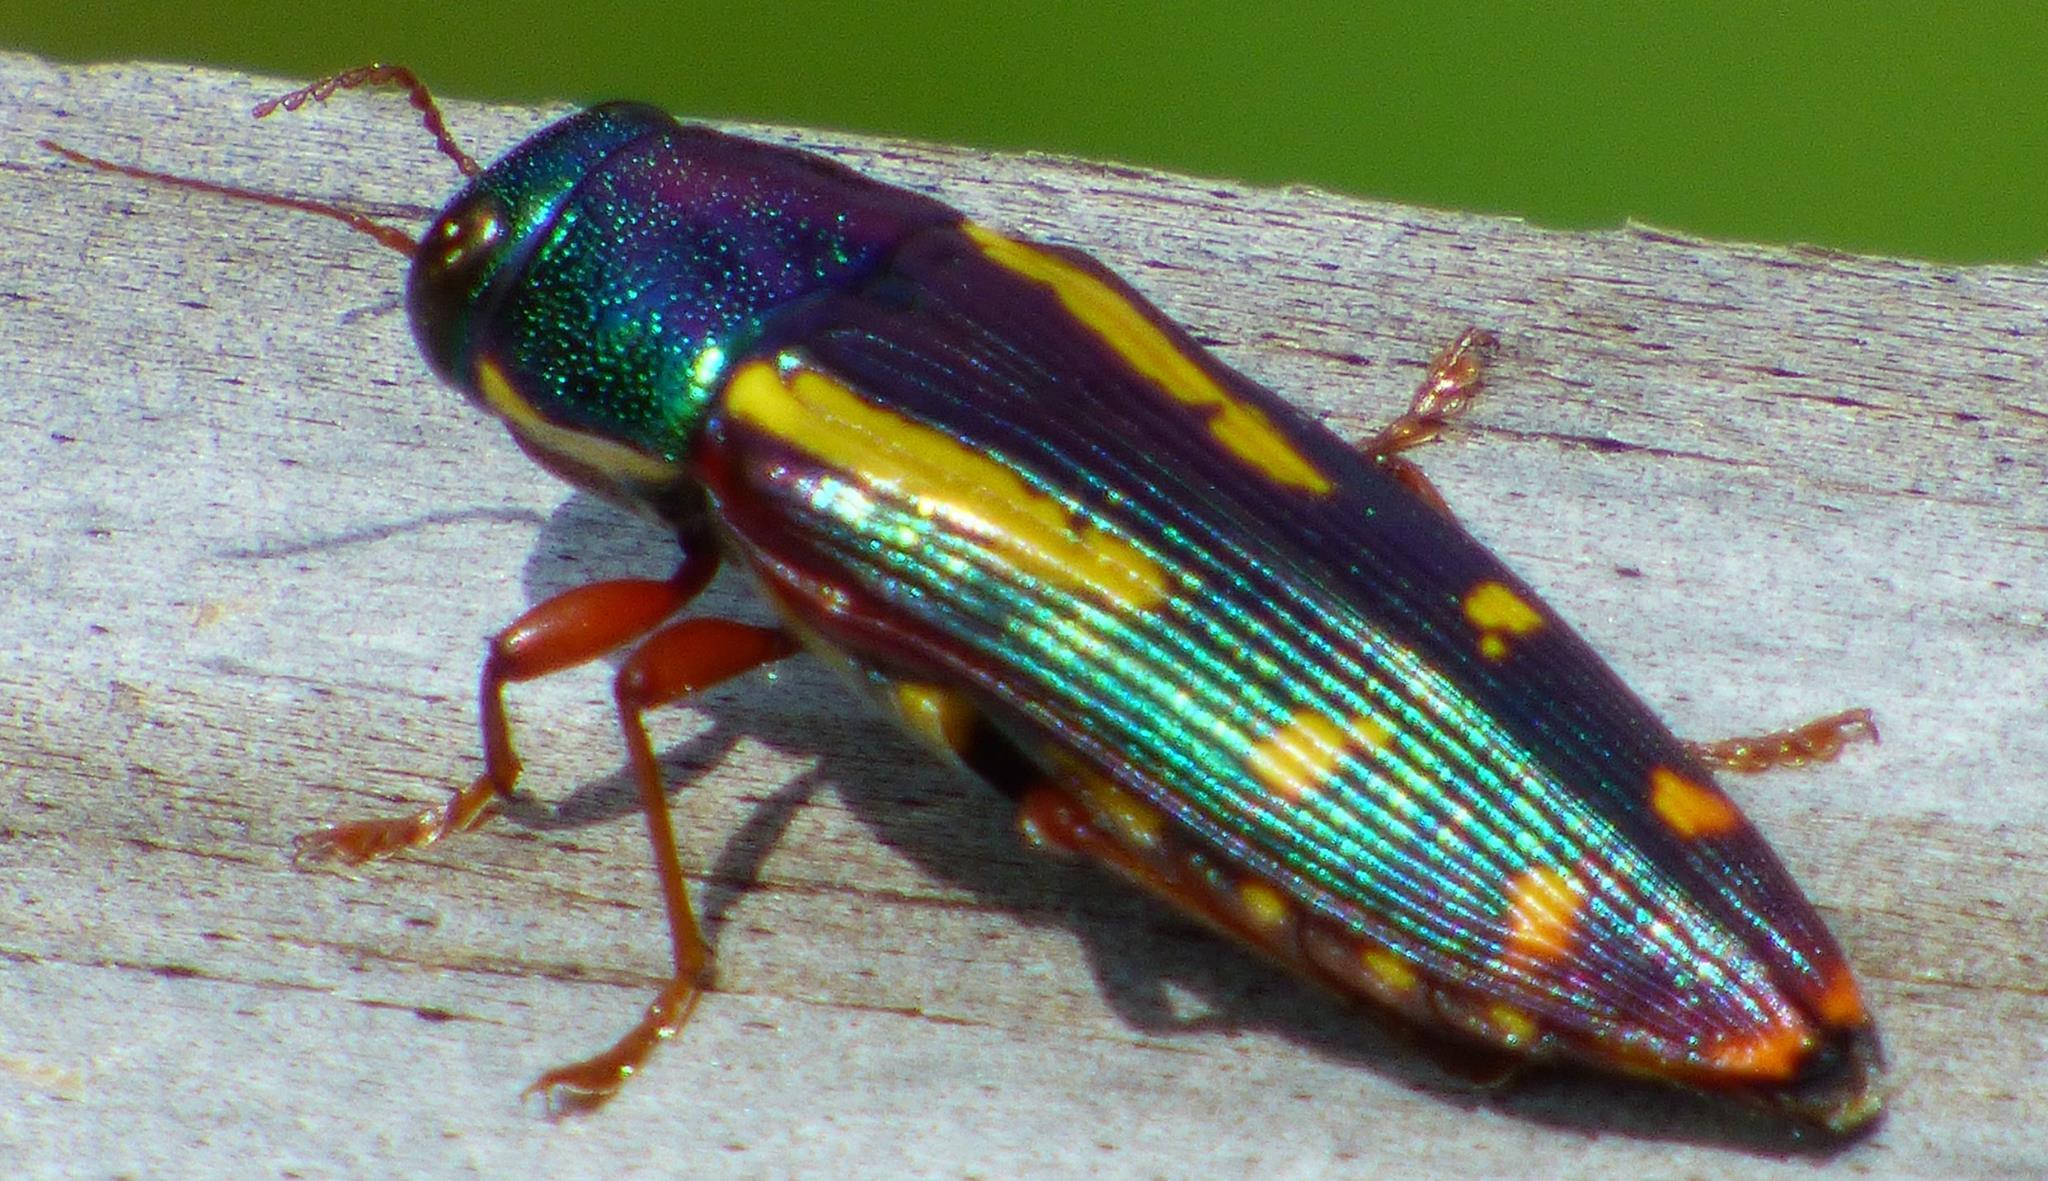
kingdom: Animalia
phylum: Arthropoda
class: Insecta
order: Coleoptera
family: Buprestidae
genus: Buprestis
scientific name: Buprestis rufipes
